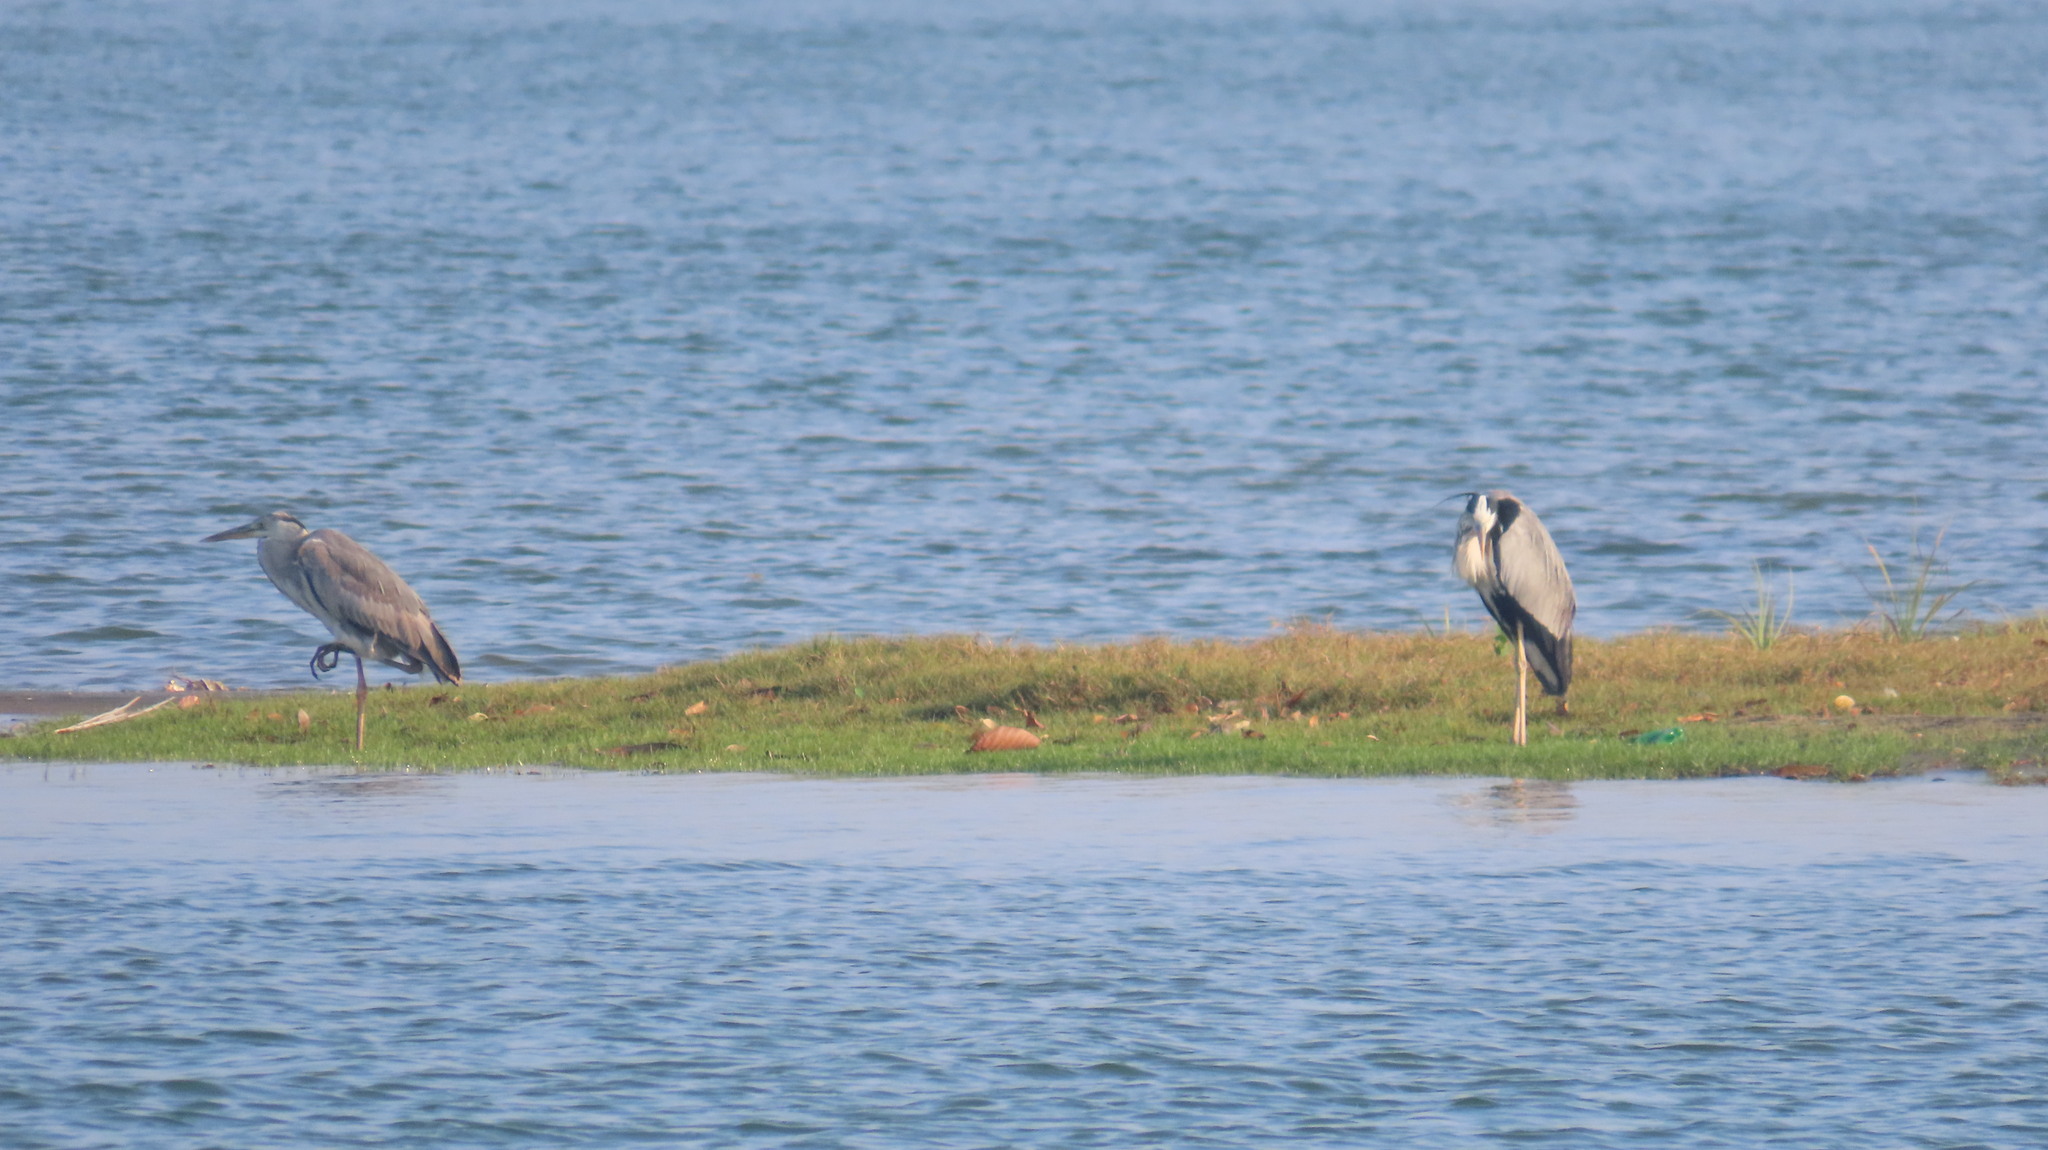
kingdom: Animalia
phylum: Chordata
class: Aves
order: Pelecaniformes
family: Ardeidae
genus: Ardea
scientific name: Ardea cinerea
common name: Grey heron
